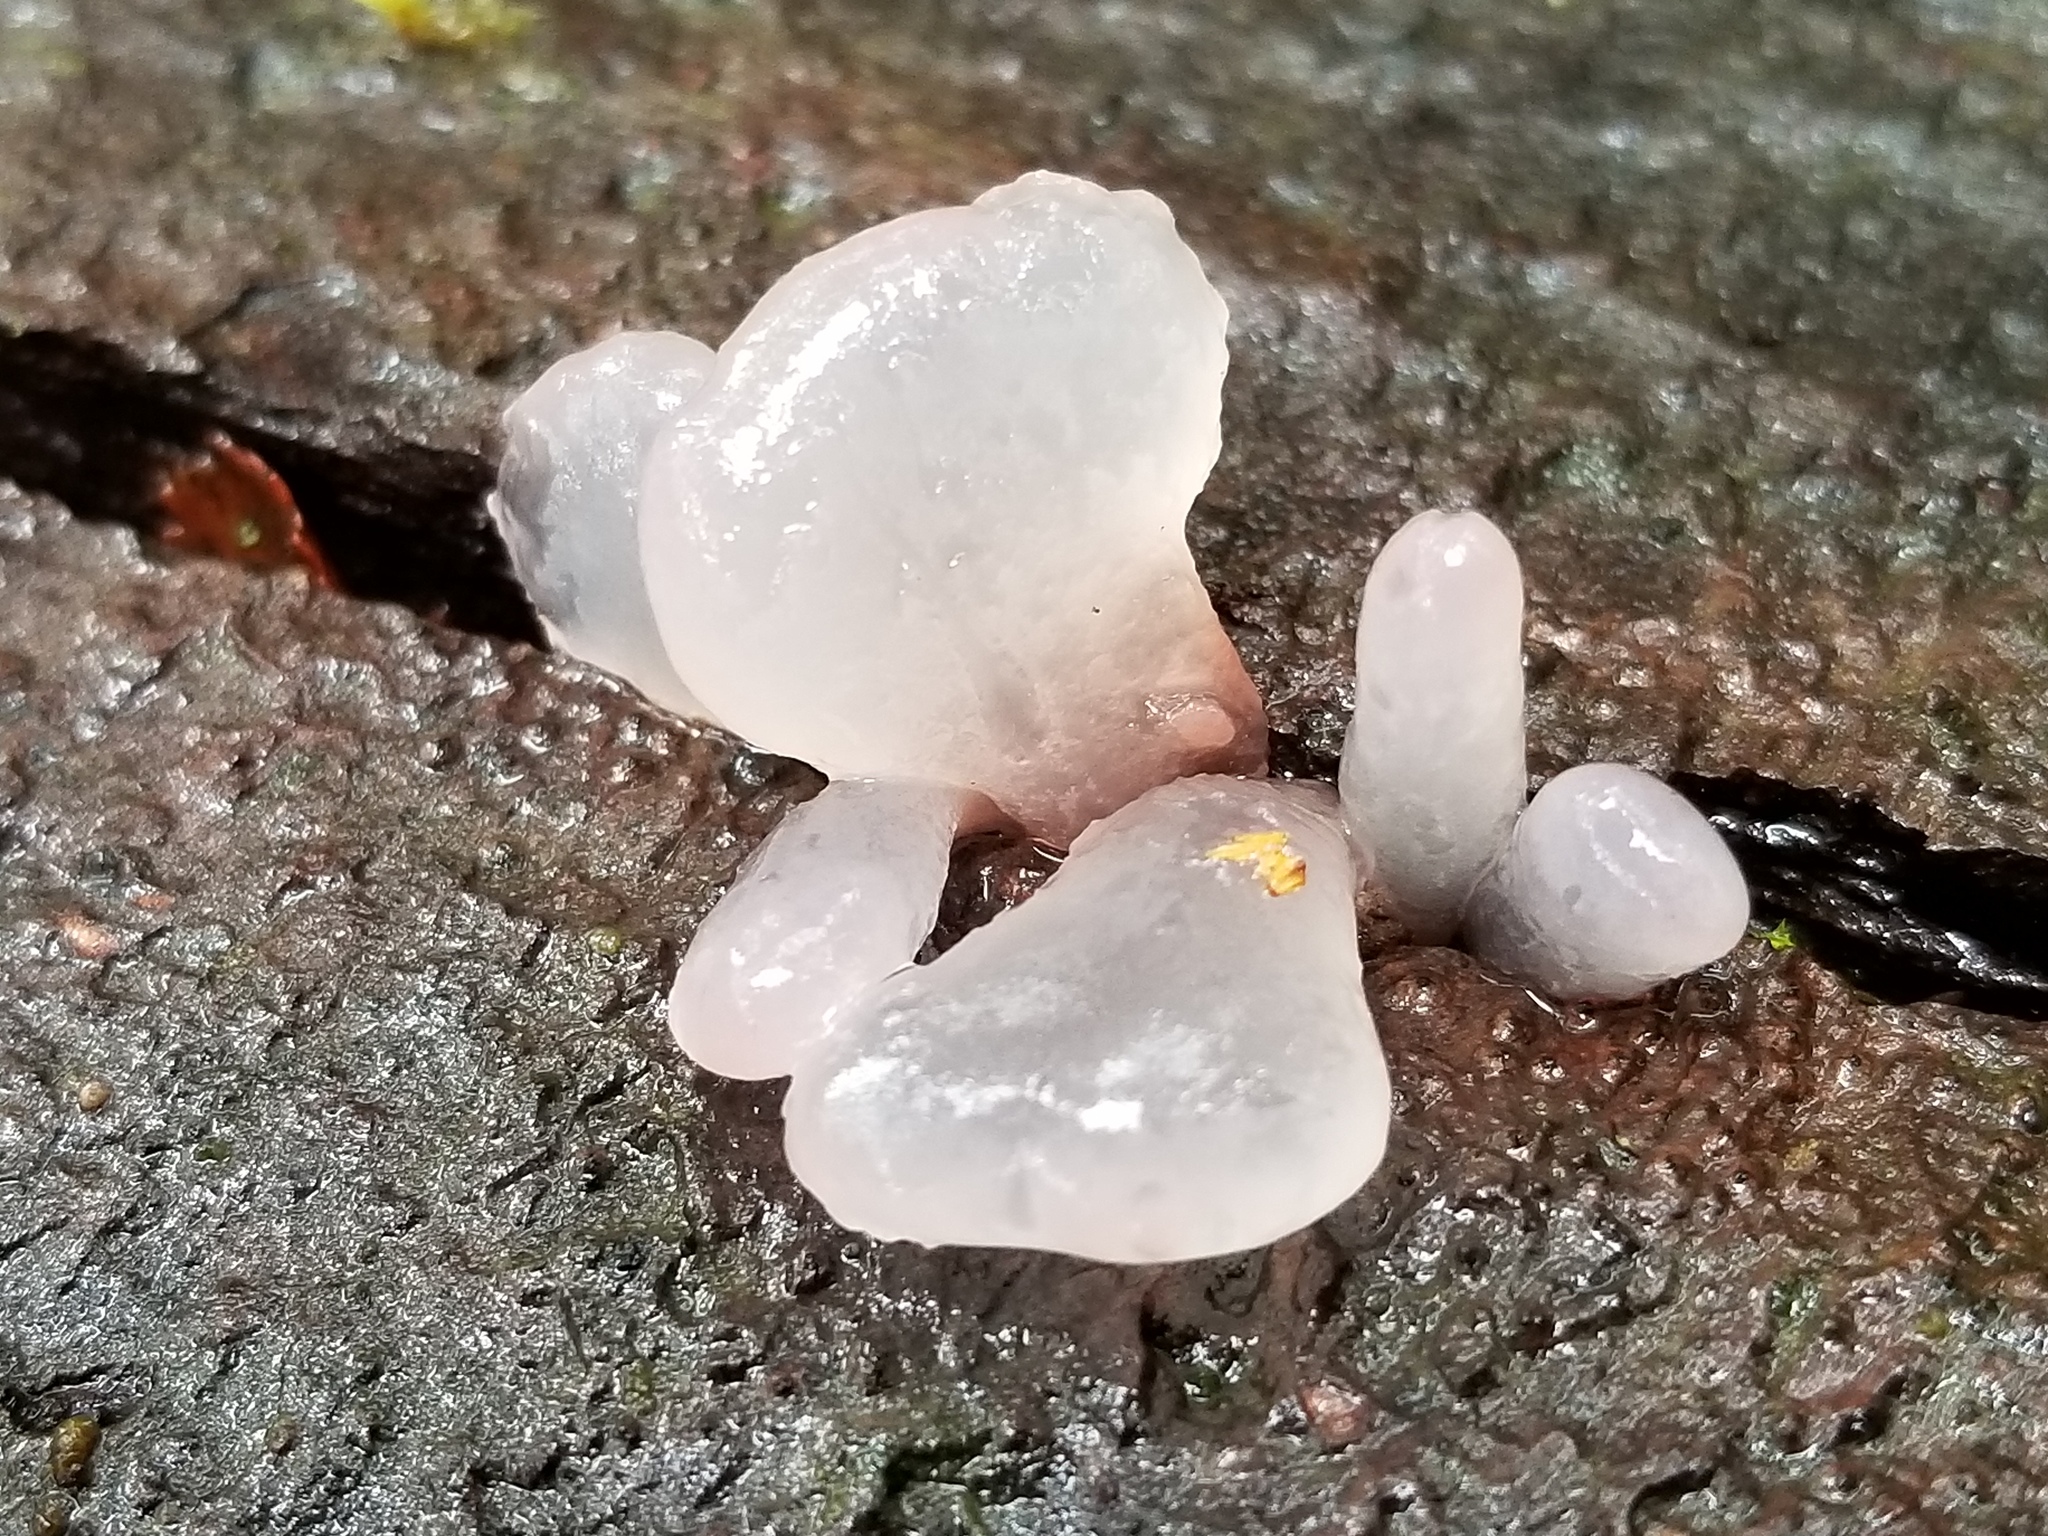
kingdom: Fungi
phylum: Ascomycota
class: Leotiomycetes
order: Helotiales
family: Gelatinodiscaceae
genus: Ascocoryne
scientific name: Ascocoryne sarcoides
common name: Purple jellydisc
